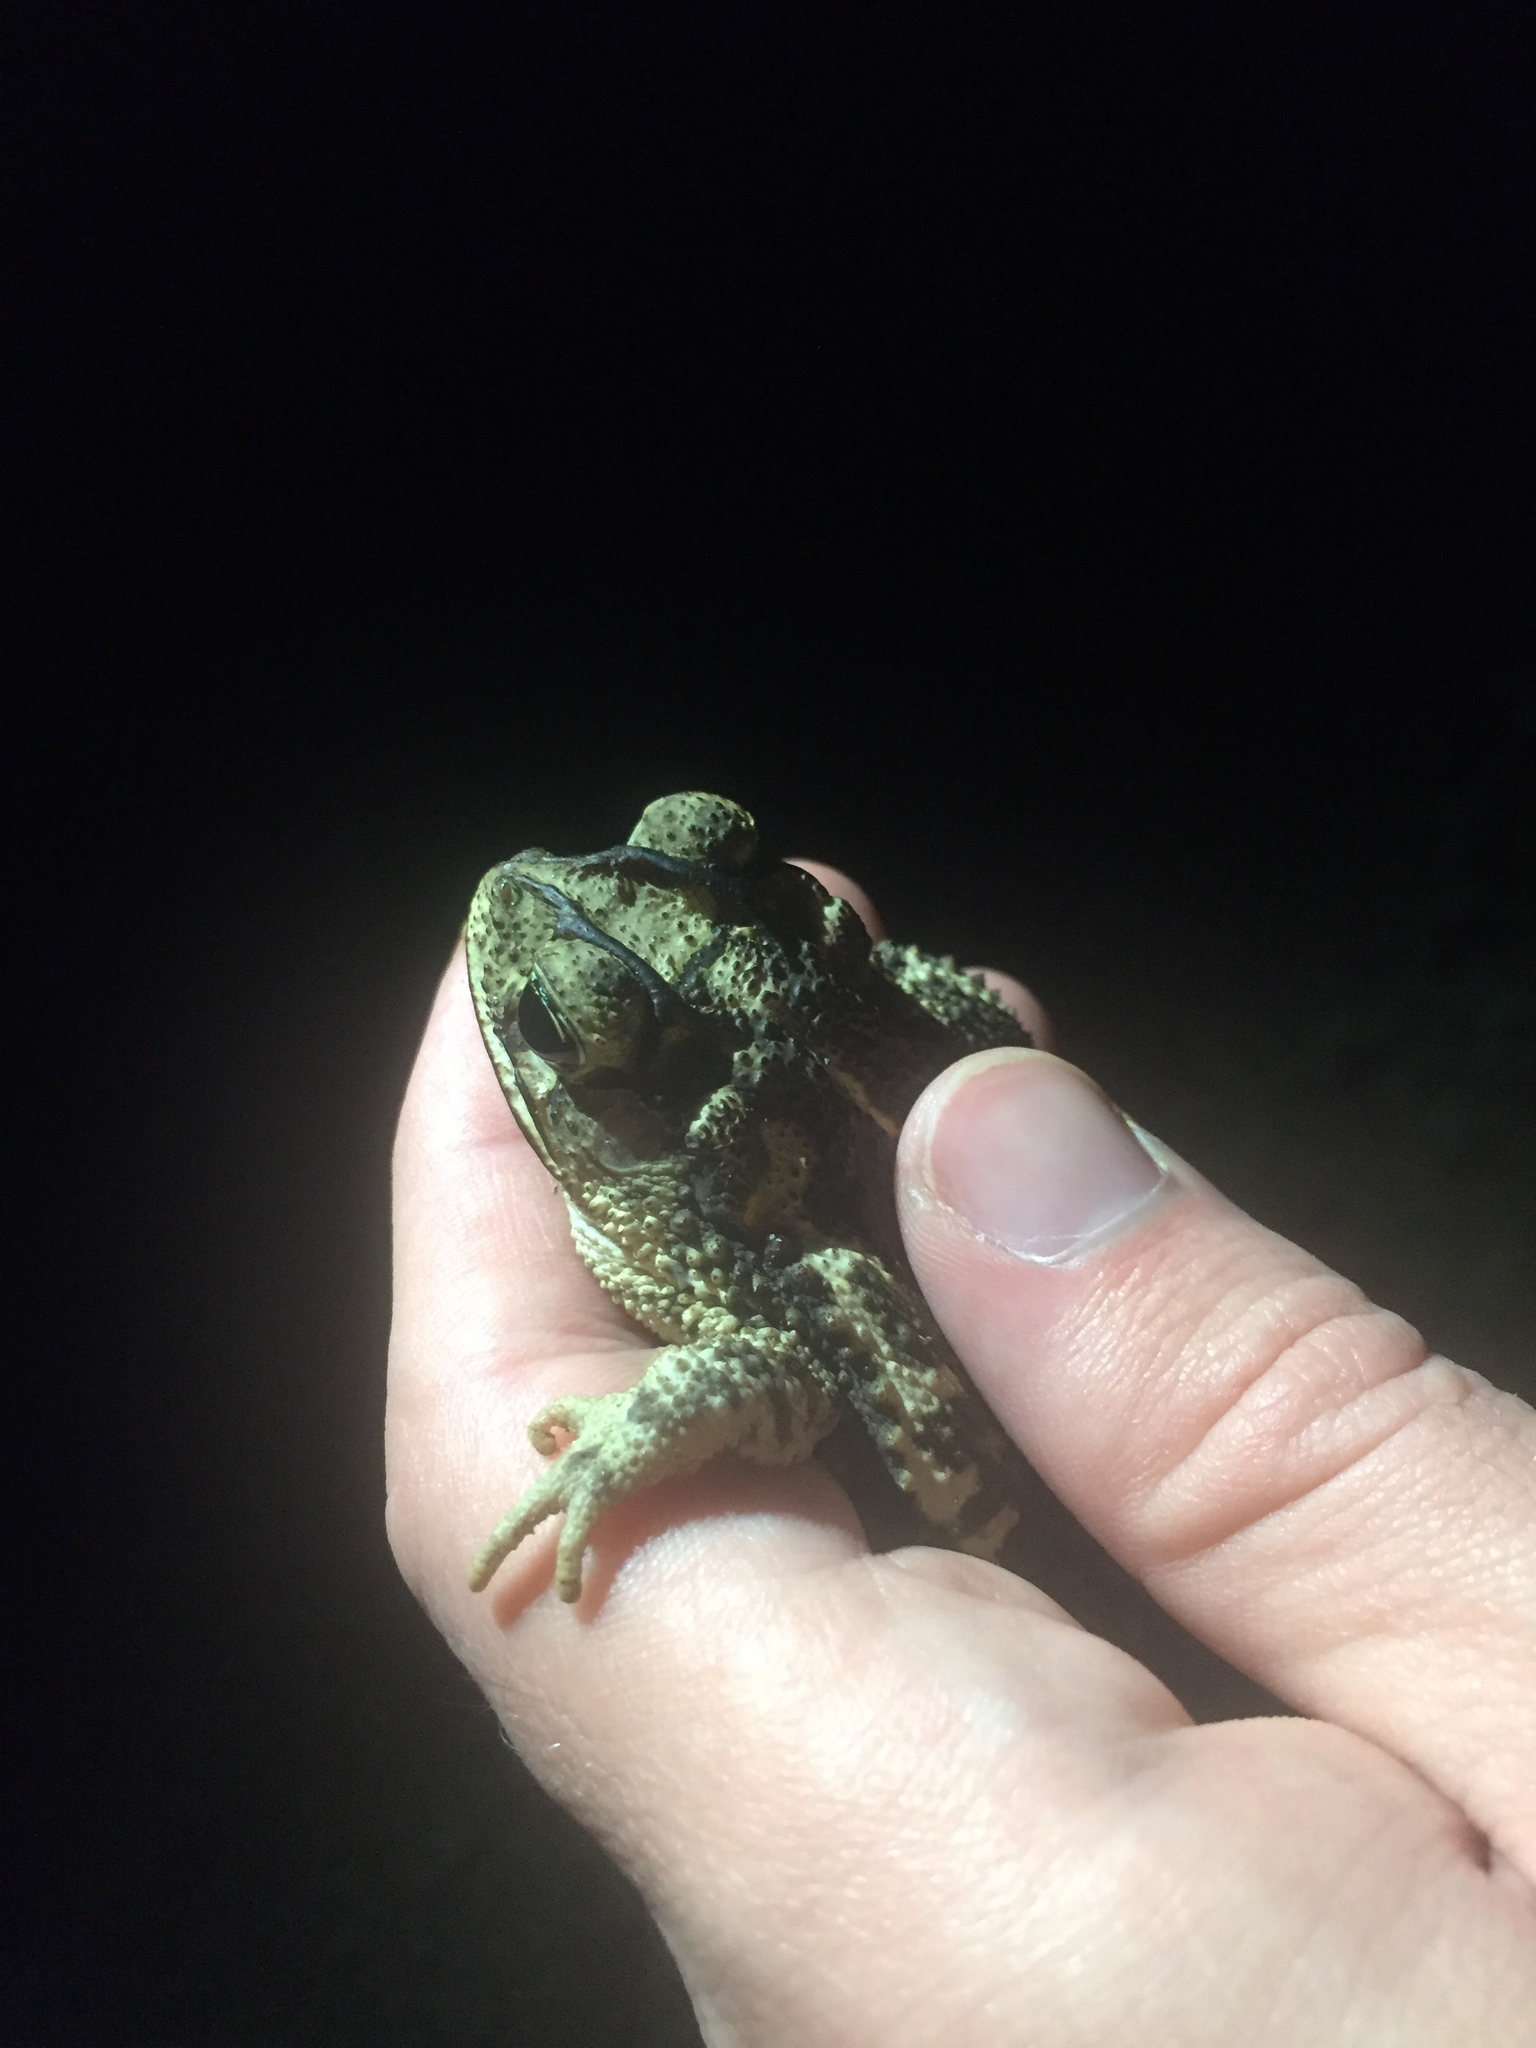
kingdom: Animalia
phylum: Chordata
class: Amphibia
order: Anura
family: Bufonidae
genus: Incilius
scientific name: Incilius nebulifer
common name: Gulf coast toad
